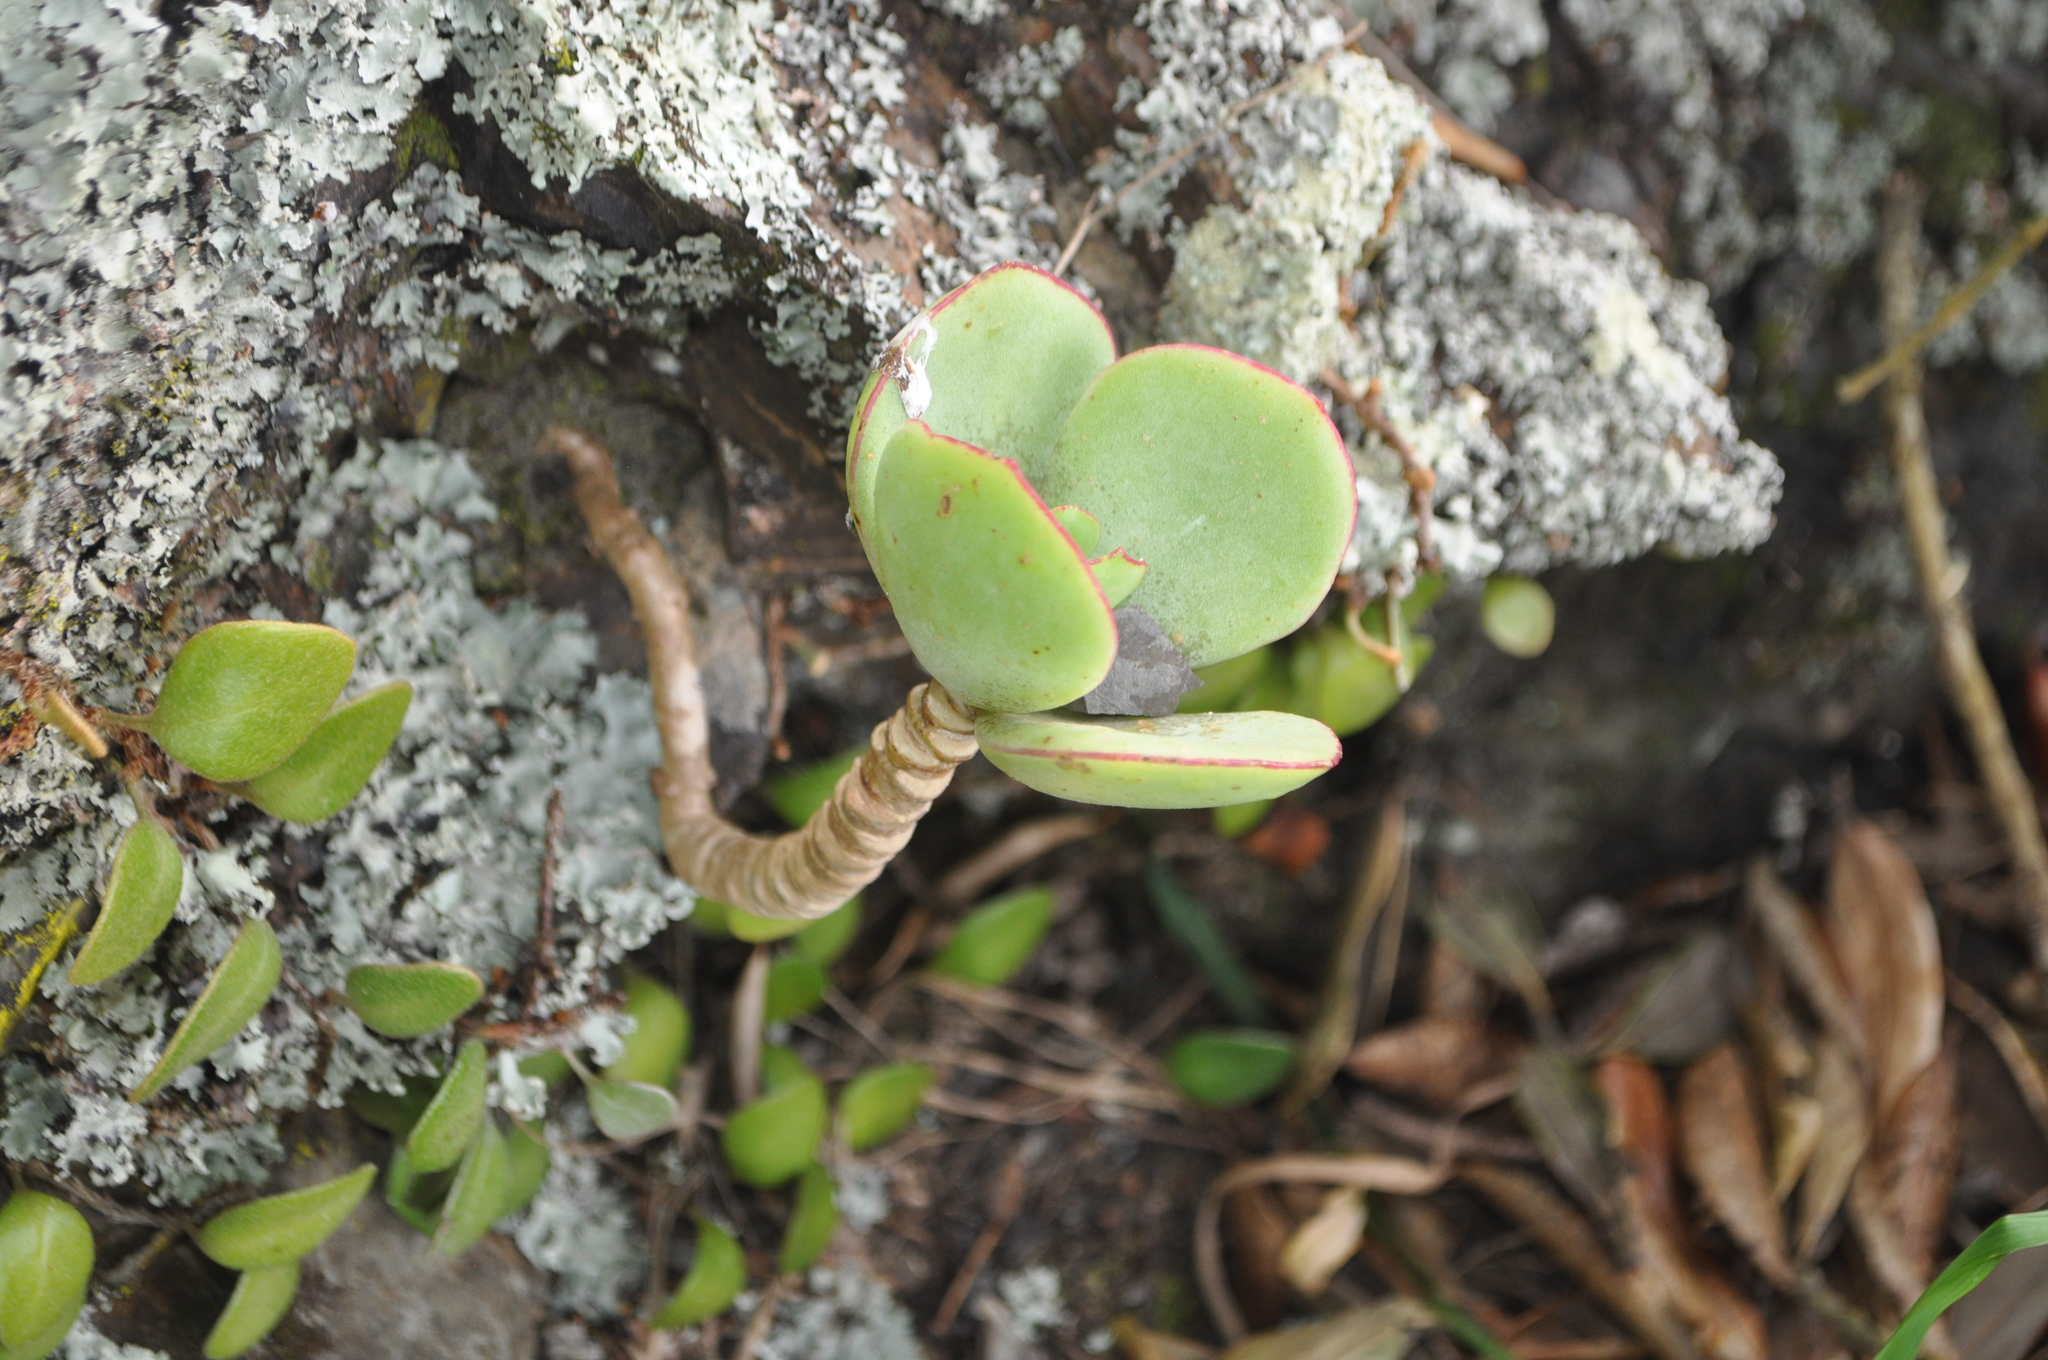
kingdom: Plantae
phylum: Tracheophyta
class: Magnoliopsida
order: Saxifragales
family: Crassulaceae
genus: Cotyledon
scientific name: Cotyledon orbiculata
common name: Pig's ear
